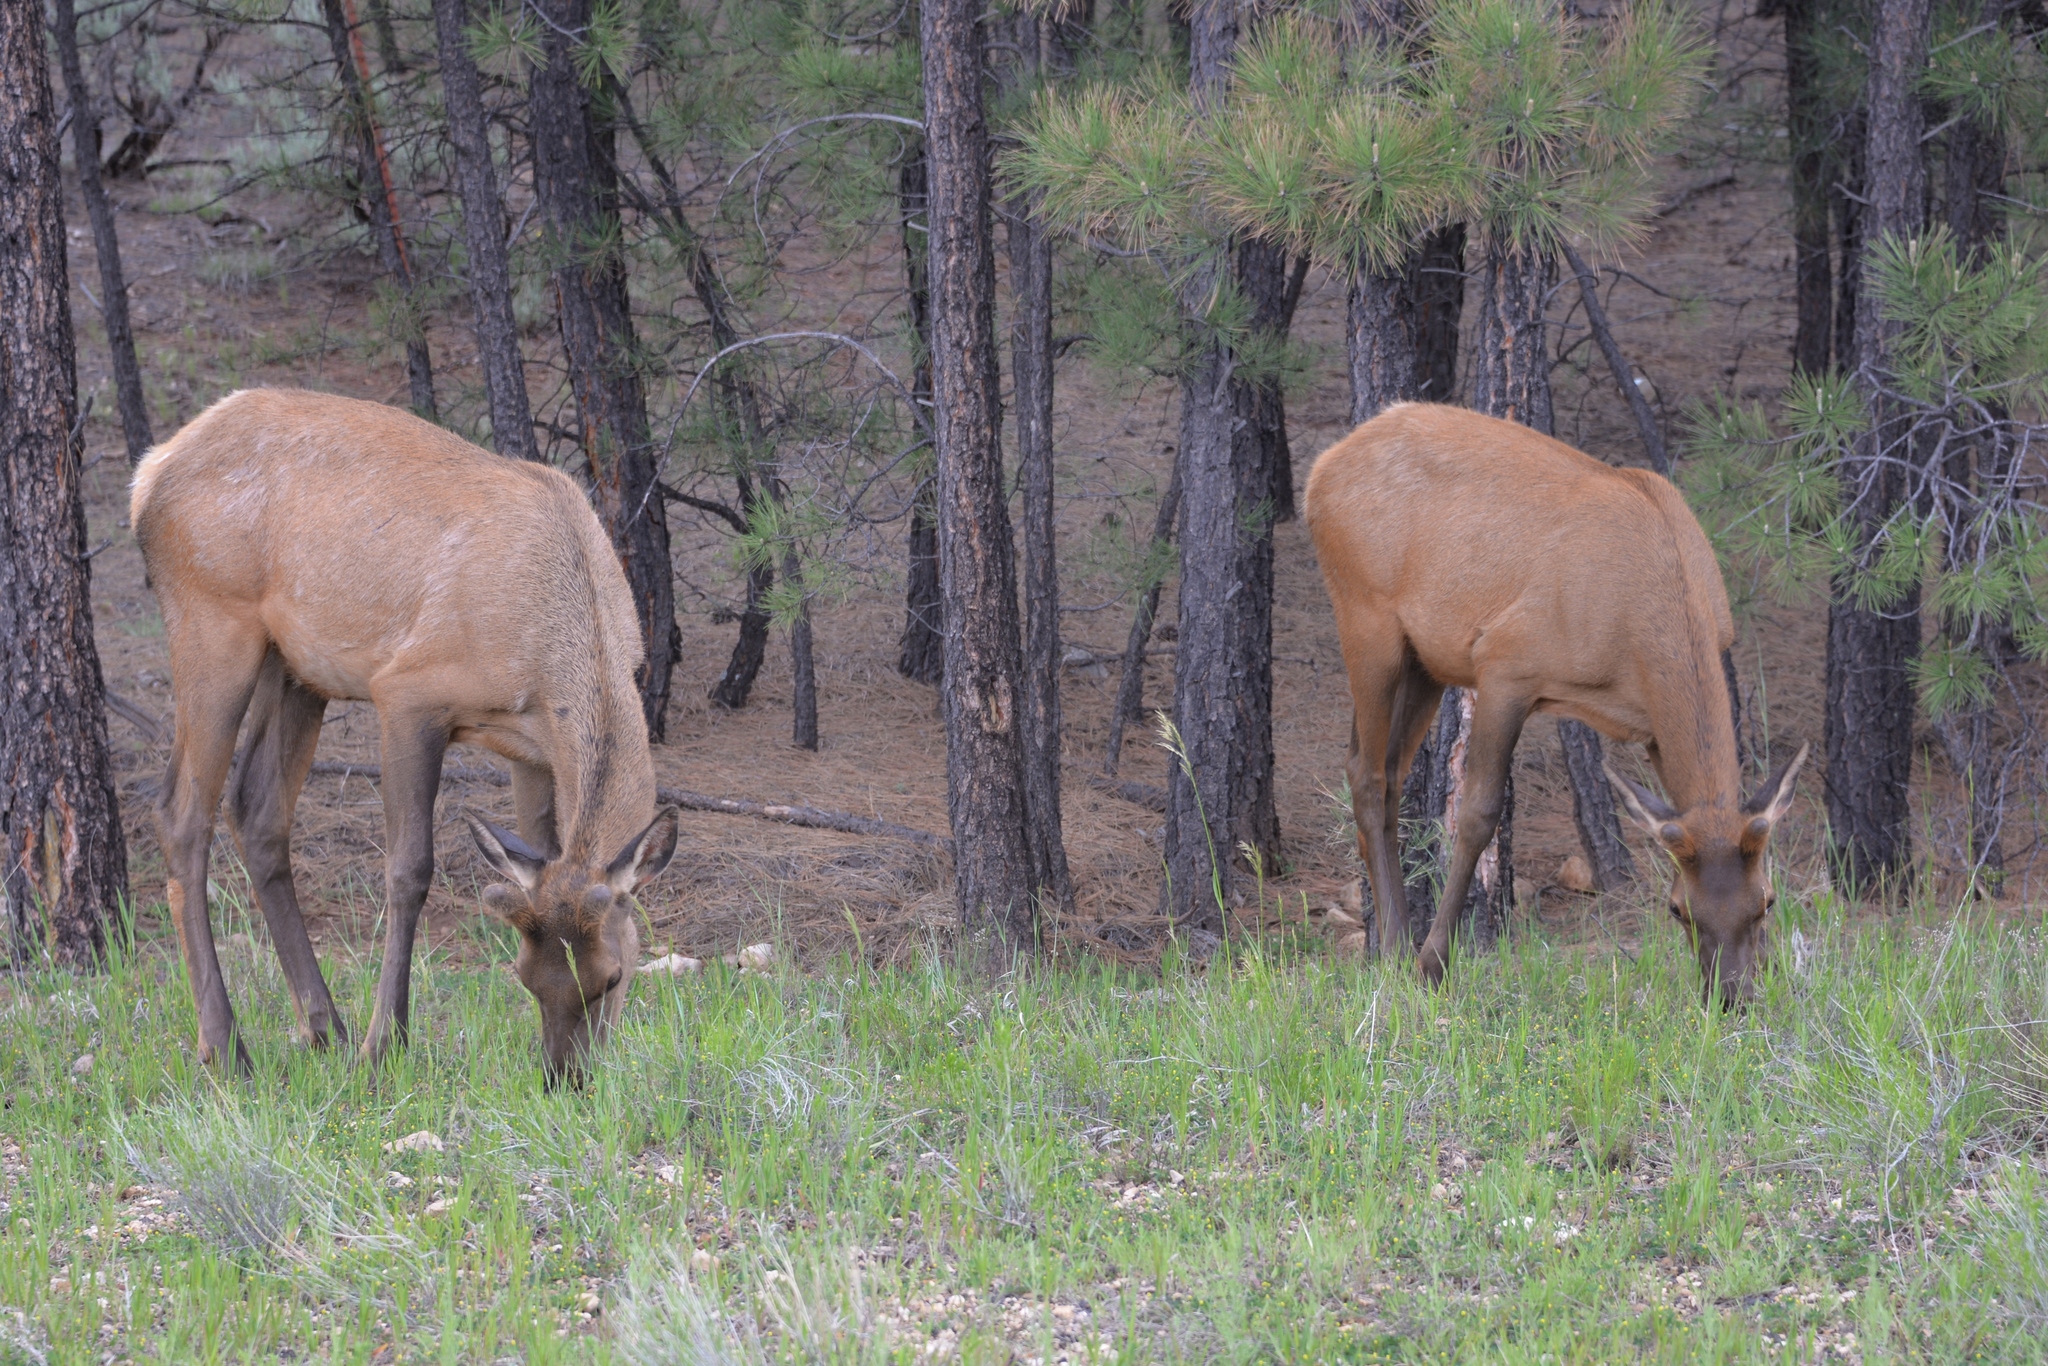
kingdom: Animalia
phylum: Chordata
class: Mammalia
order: Artiodactyla
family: Cervidae
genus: Cervus
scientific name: Cervus elaphus
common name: Red deer
